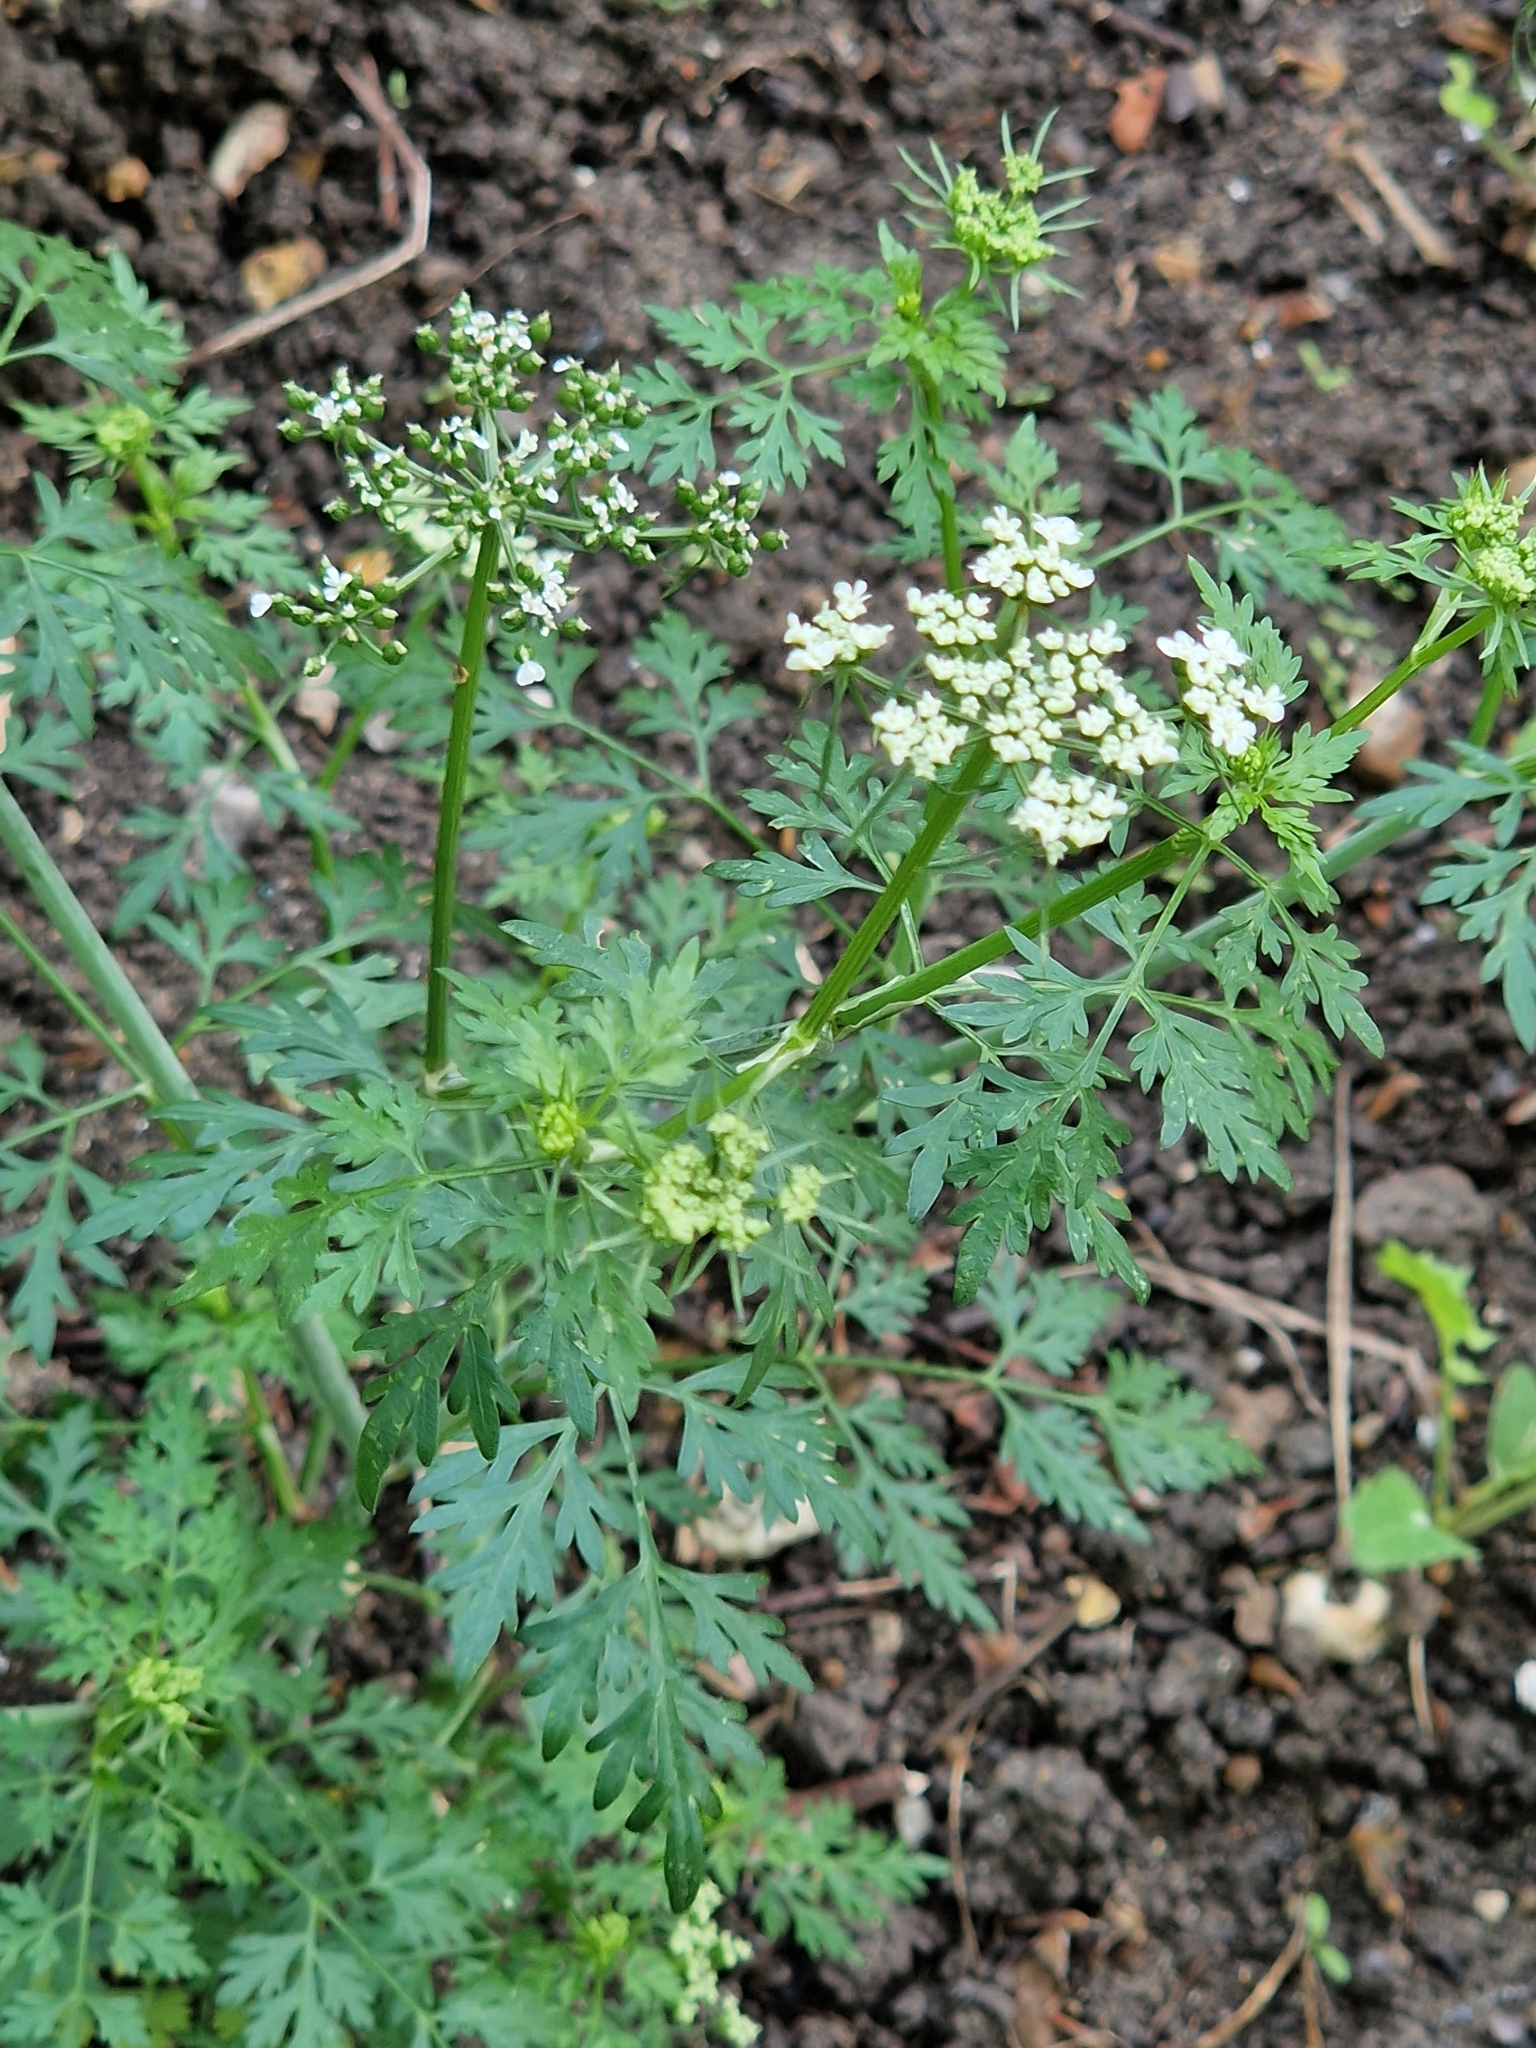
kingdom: Plantae
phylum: Tracheophyta
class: Magnoliopsida
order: Apiales
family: Apiaceae
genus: Aethusa
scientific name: Aethusa cynapium
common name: Fool's parsley
